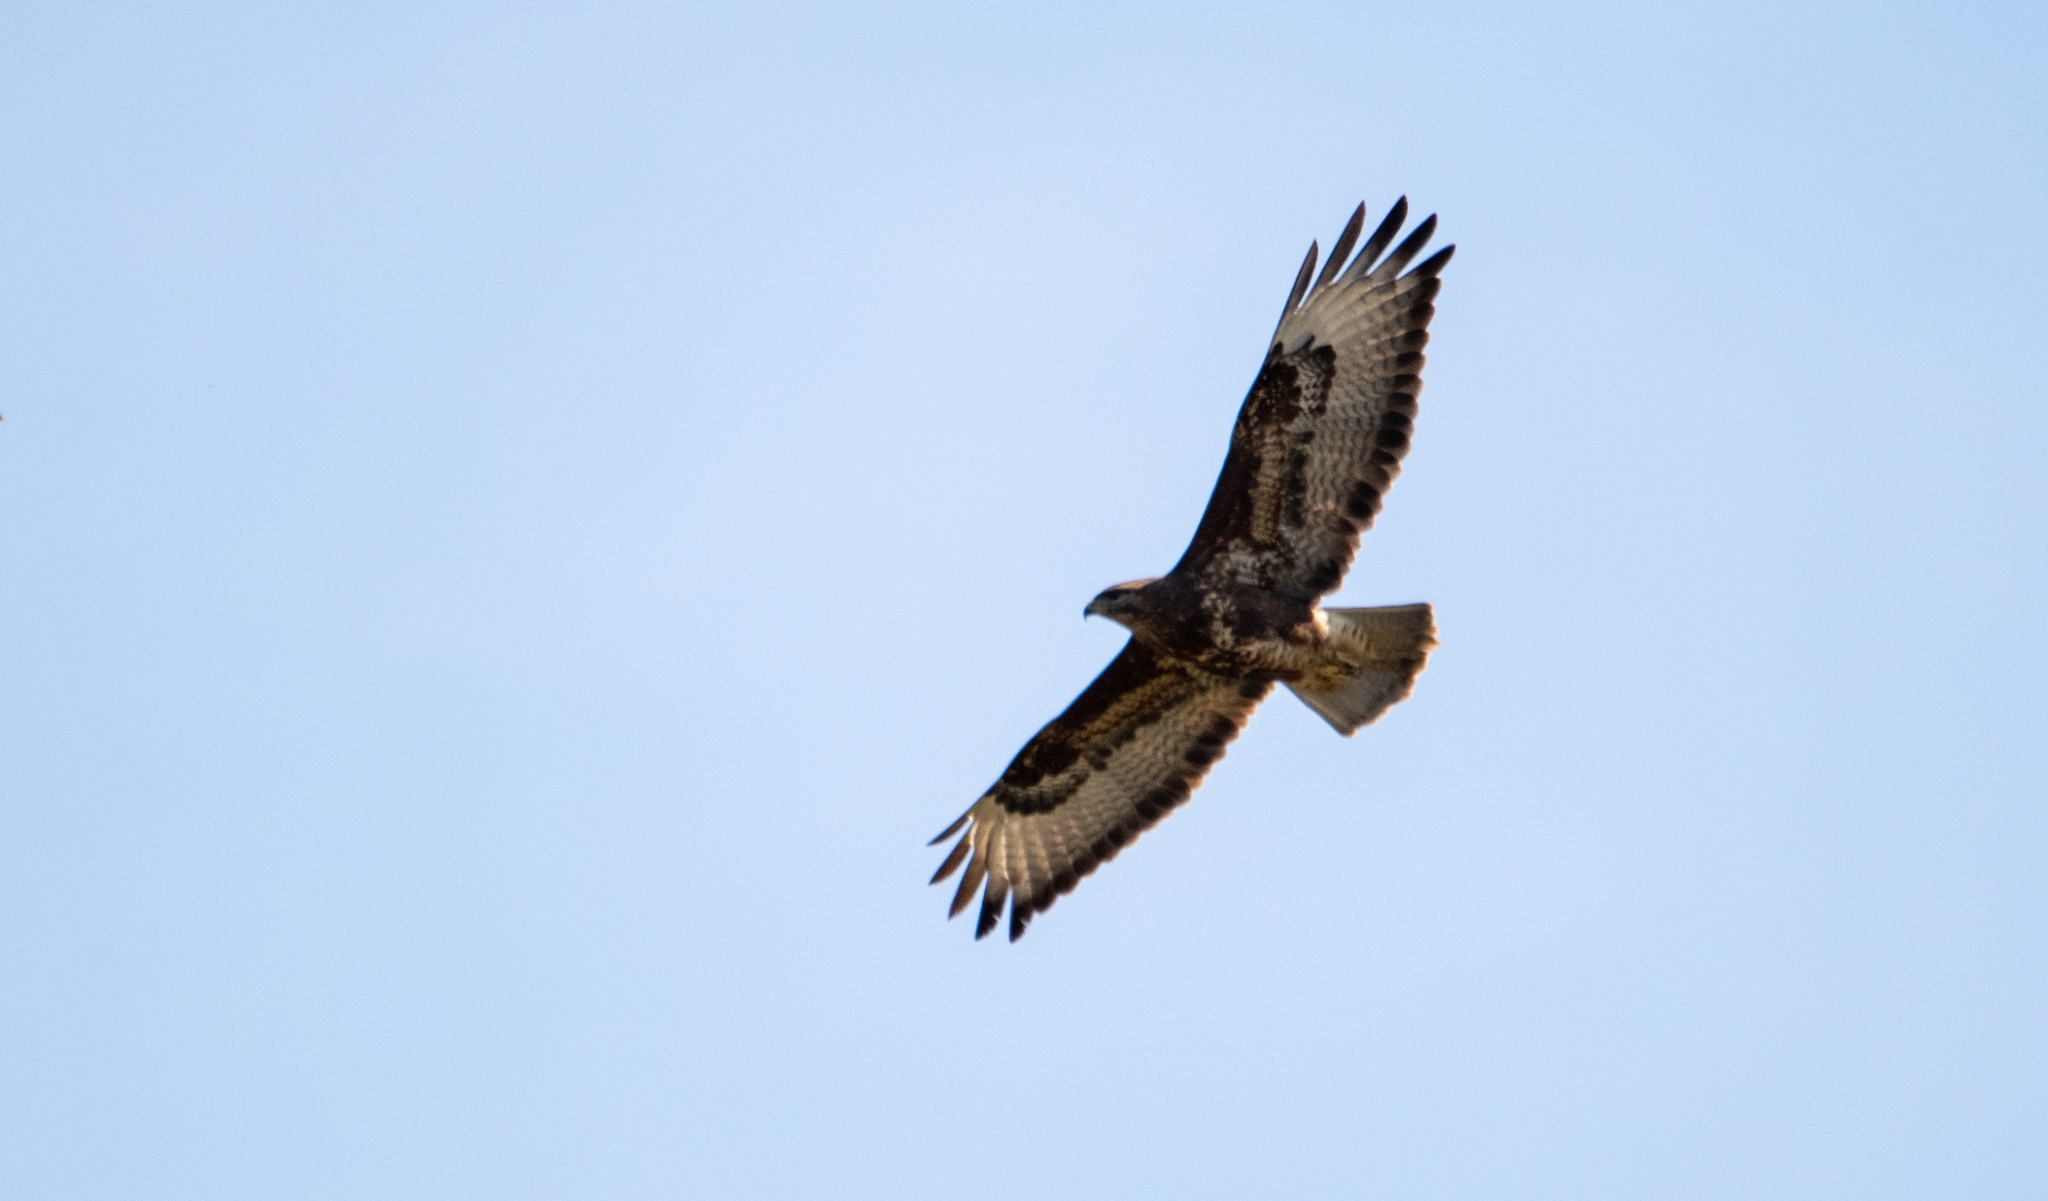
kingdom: Animalia
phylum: Chordata
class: Aves
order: Accipitriformes
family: Accipitridae
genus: Buteo
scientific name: Buteo buteo
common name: Common buzzard
